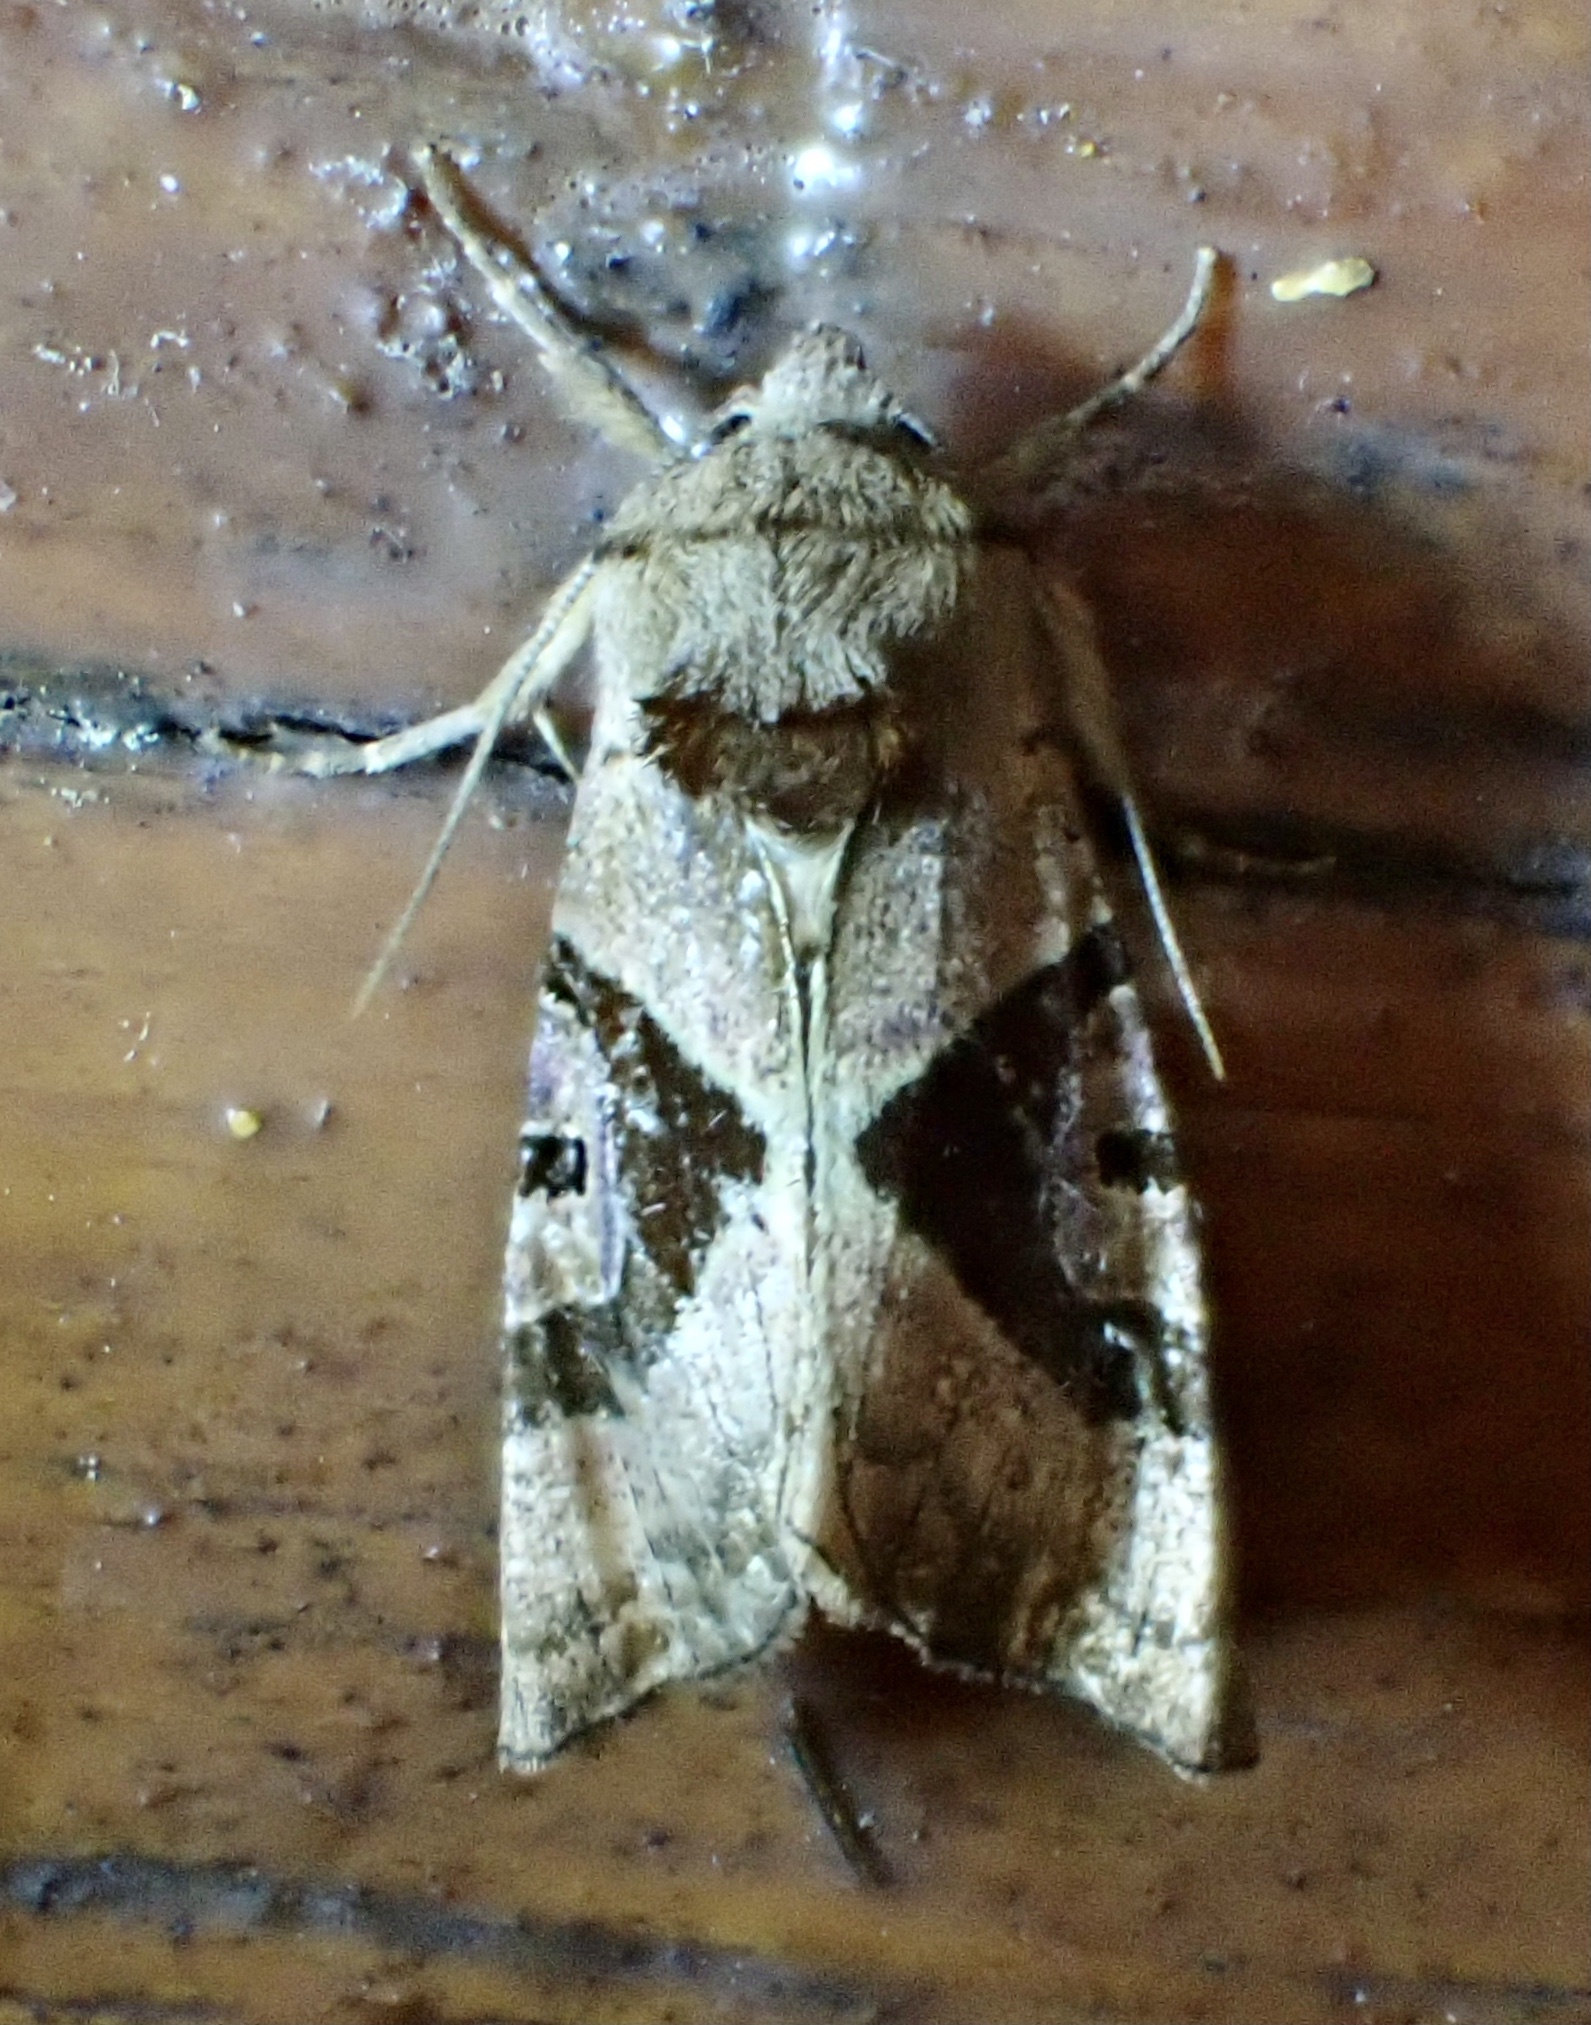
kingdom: Animalia
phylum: Arthropoda
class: Insecta
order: Lepidoptera
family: Noctuidae
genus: Conservula
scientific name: Conservula anodonta
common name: Sharp angle shades
